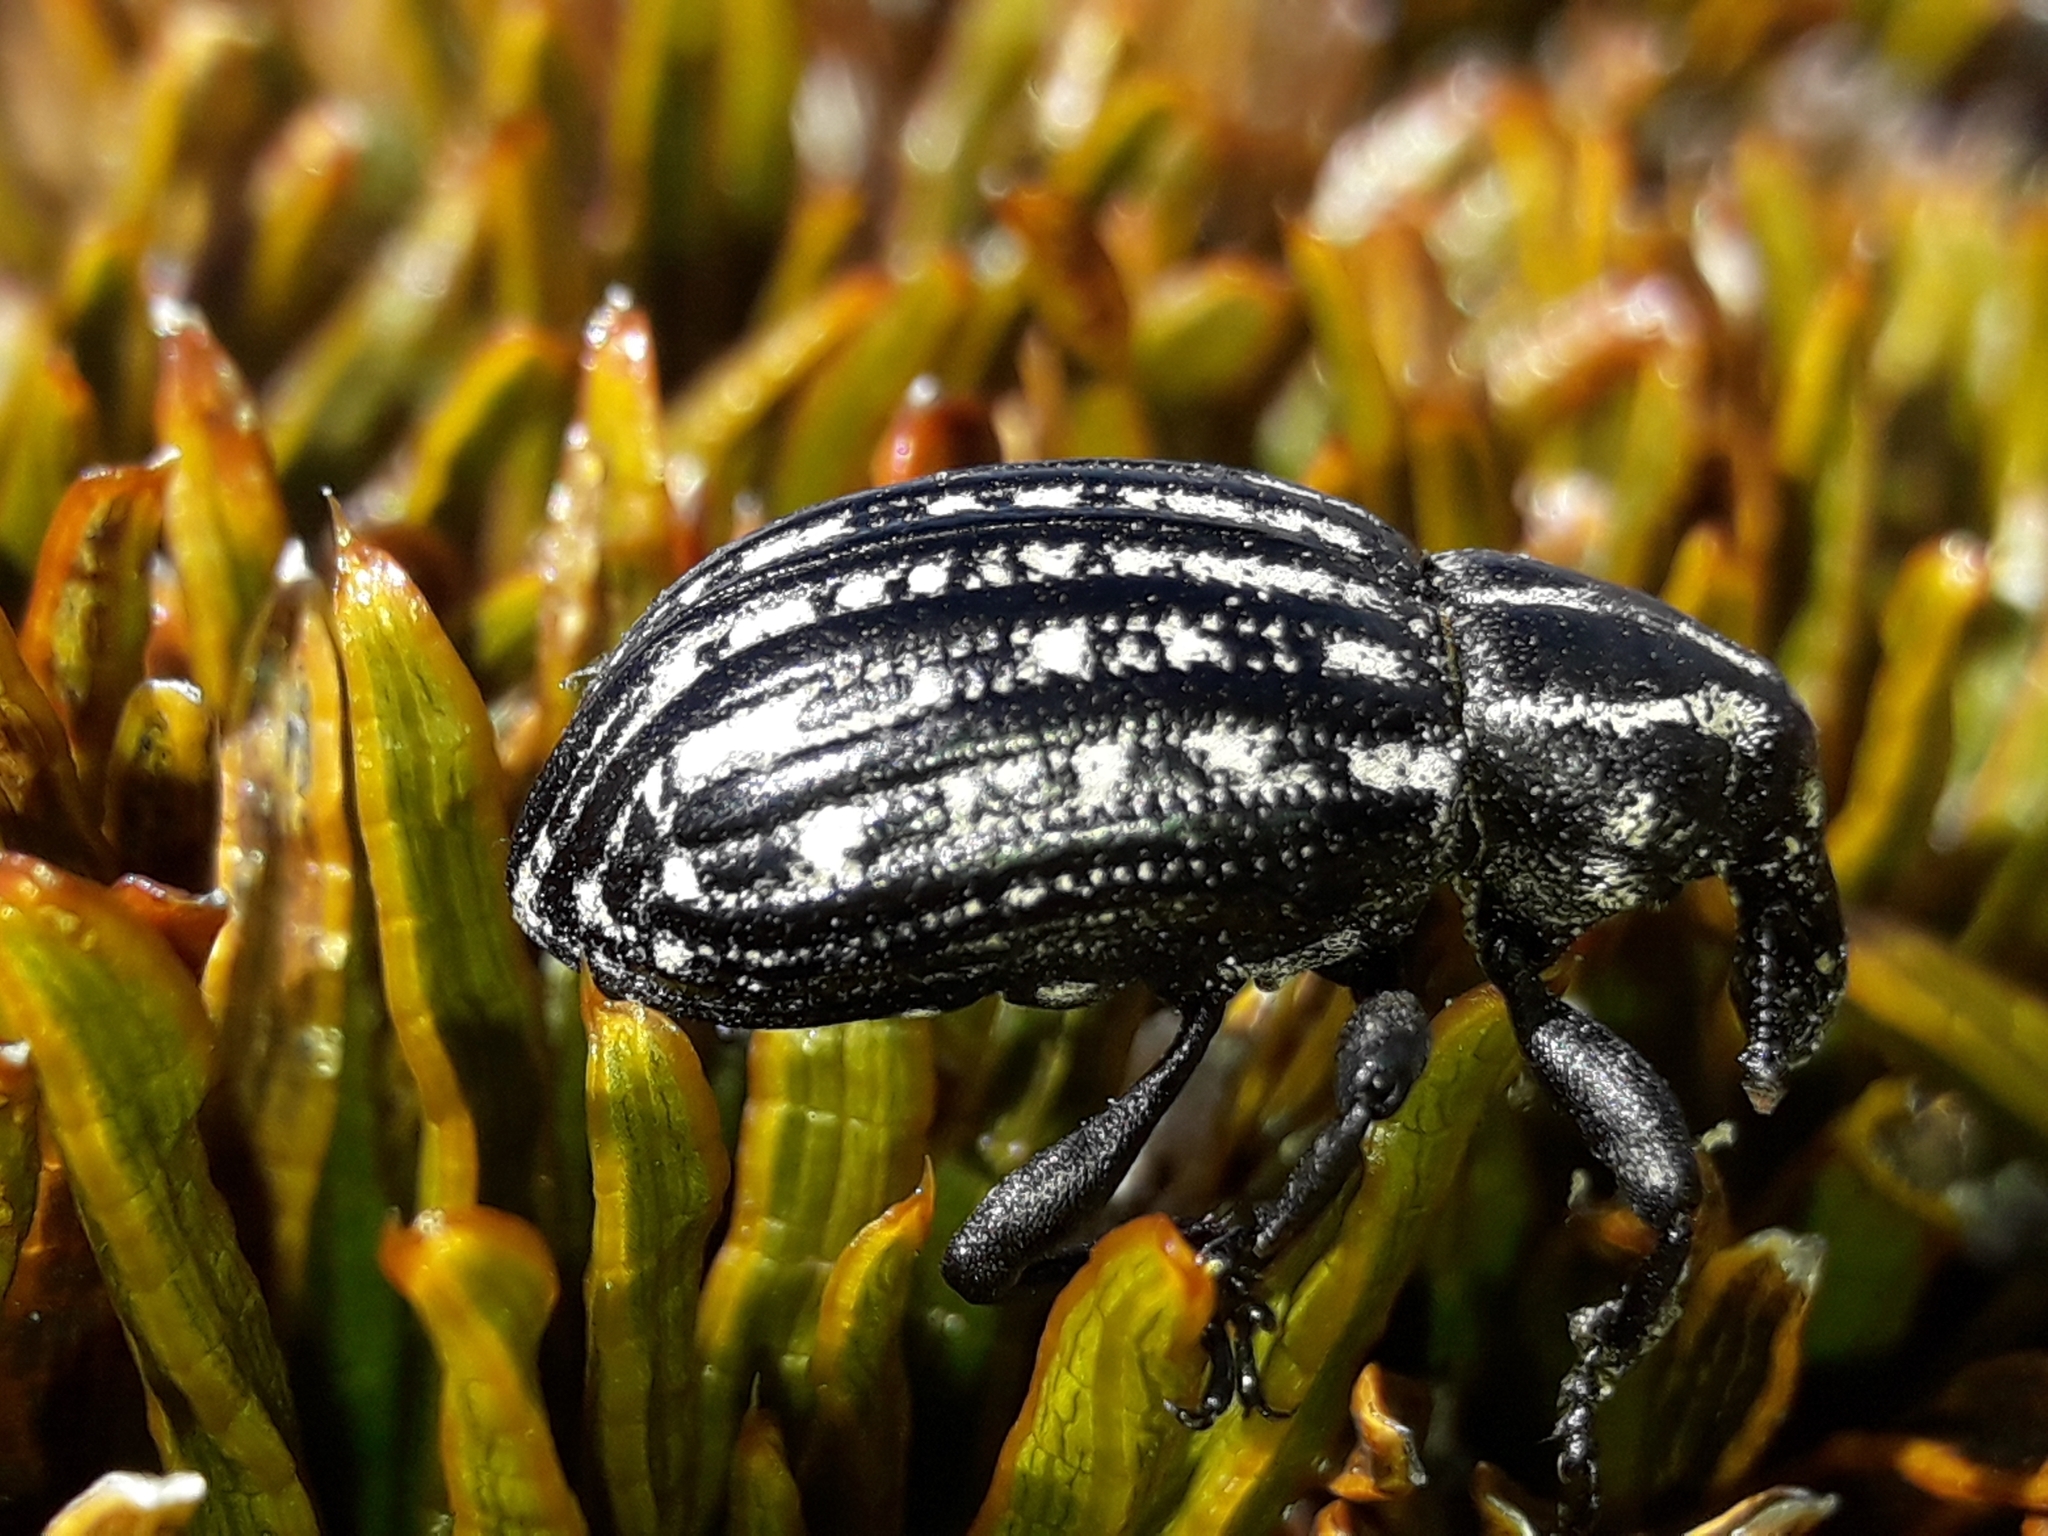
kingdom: Animalia
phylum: Arthropoda
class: Insecta
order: Coleoptera
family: Curculionidae
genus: Lyperobius
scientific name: Lyperobius hudsoni
